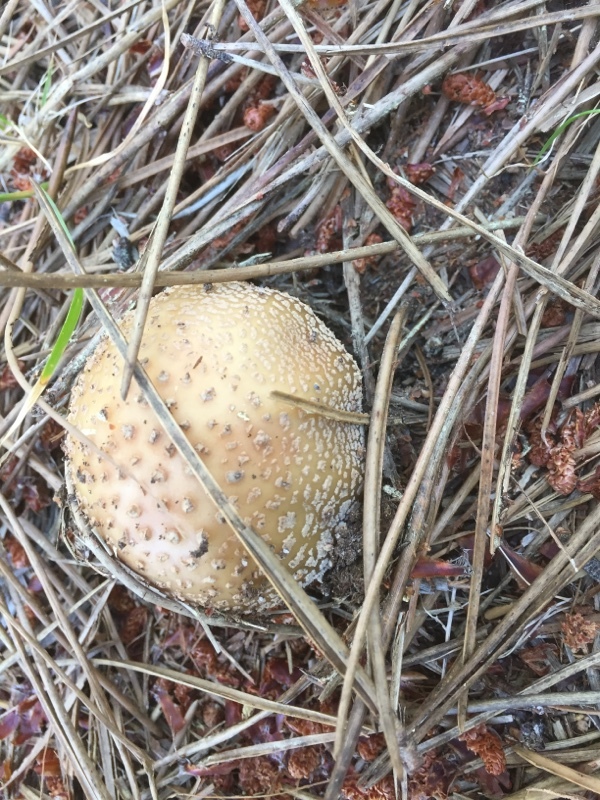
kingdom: Fungi
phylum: Basidiomycota
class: Agaricomycetes
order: Agaricales
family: Amanitaceae
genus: Amanita
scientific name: Amanita rubescens
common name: Blusher
